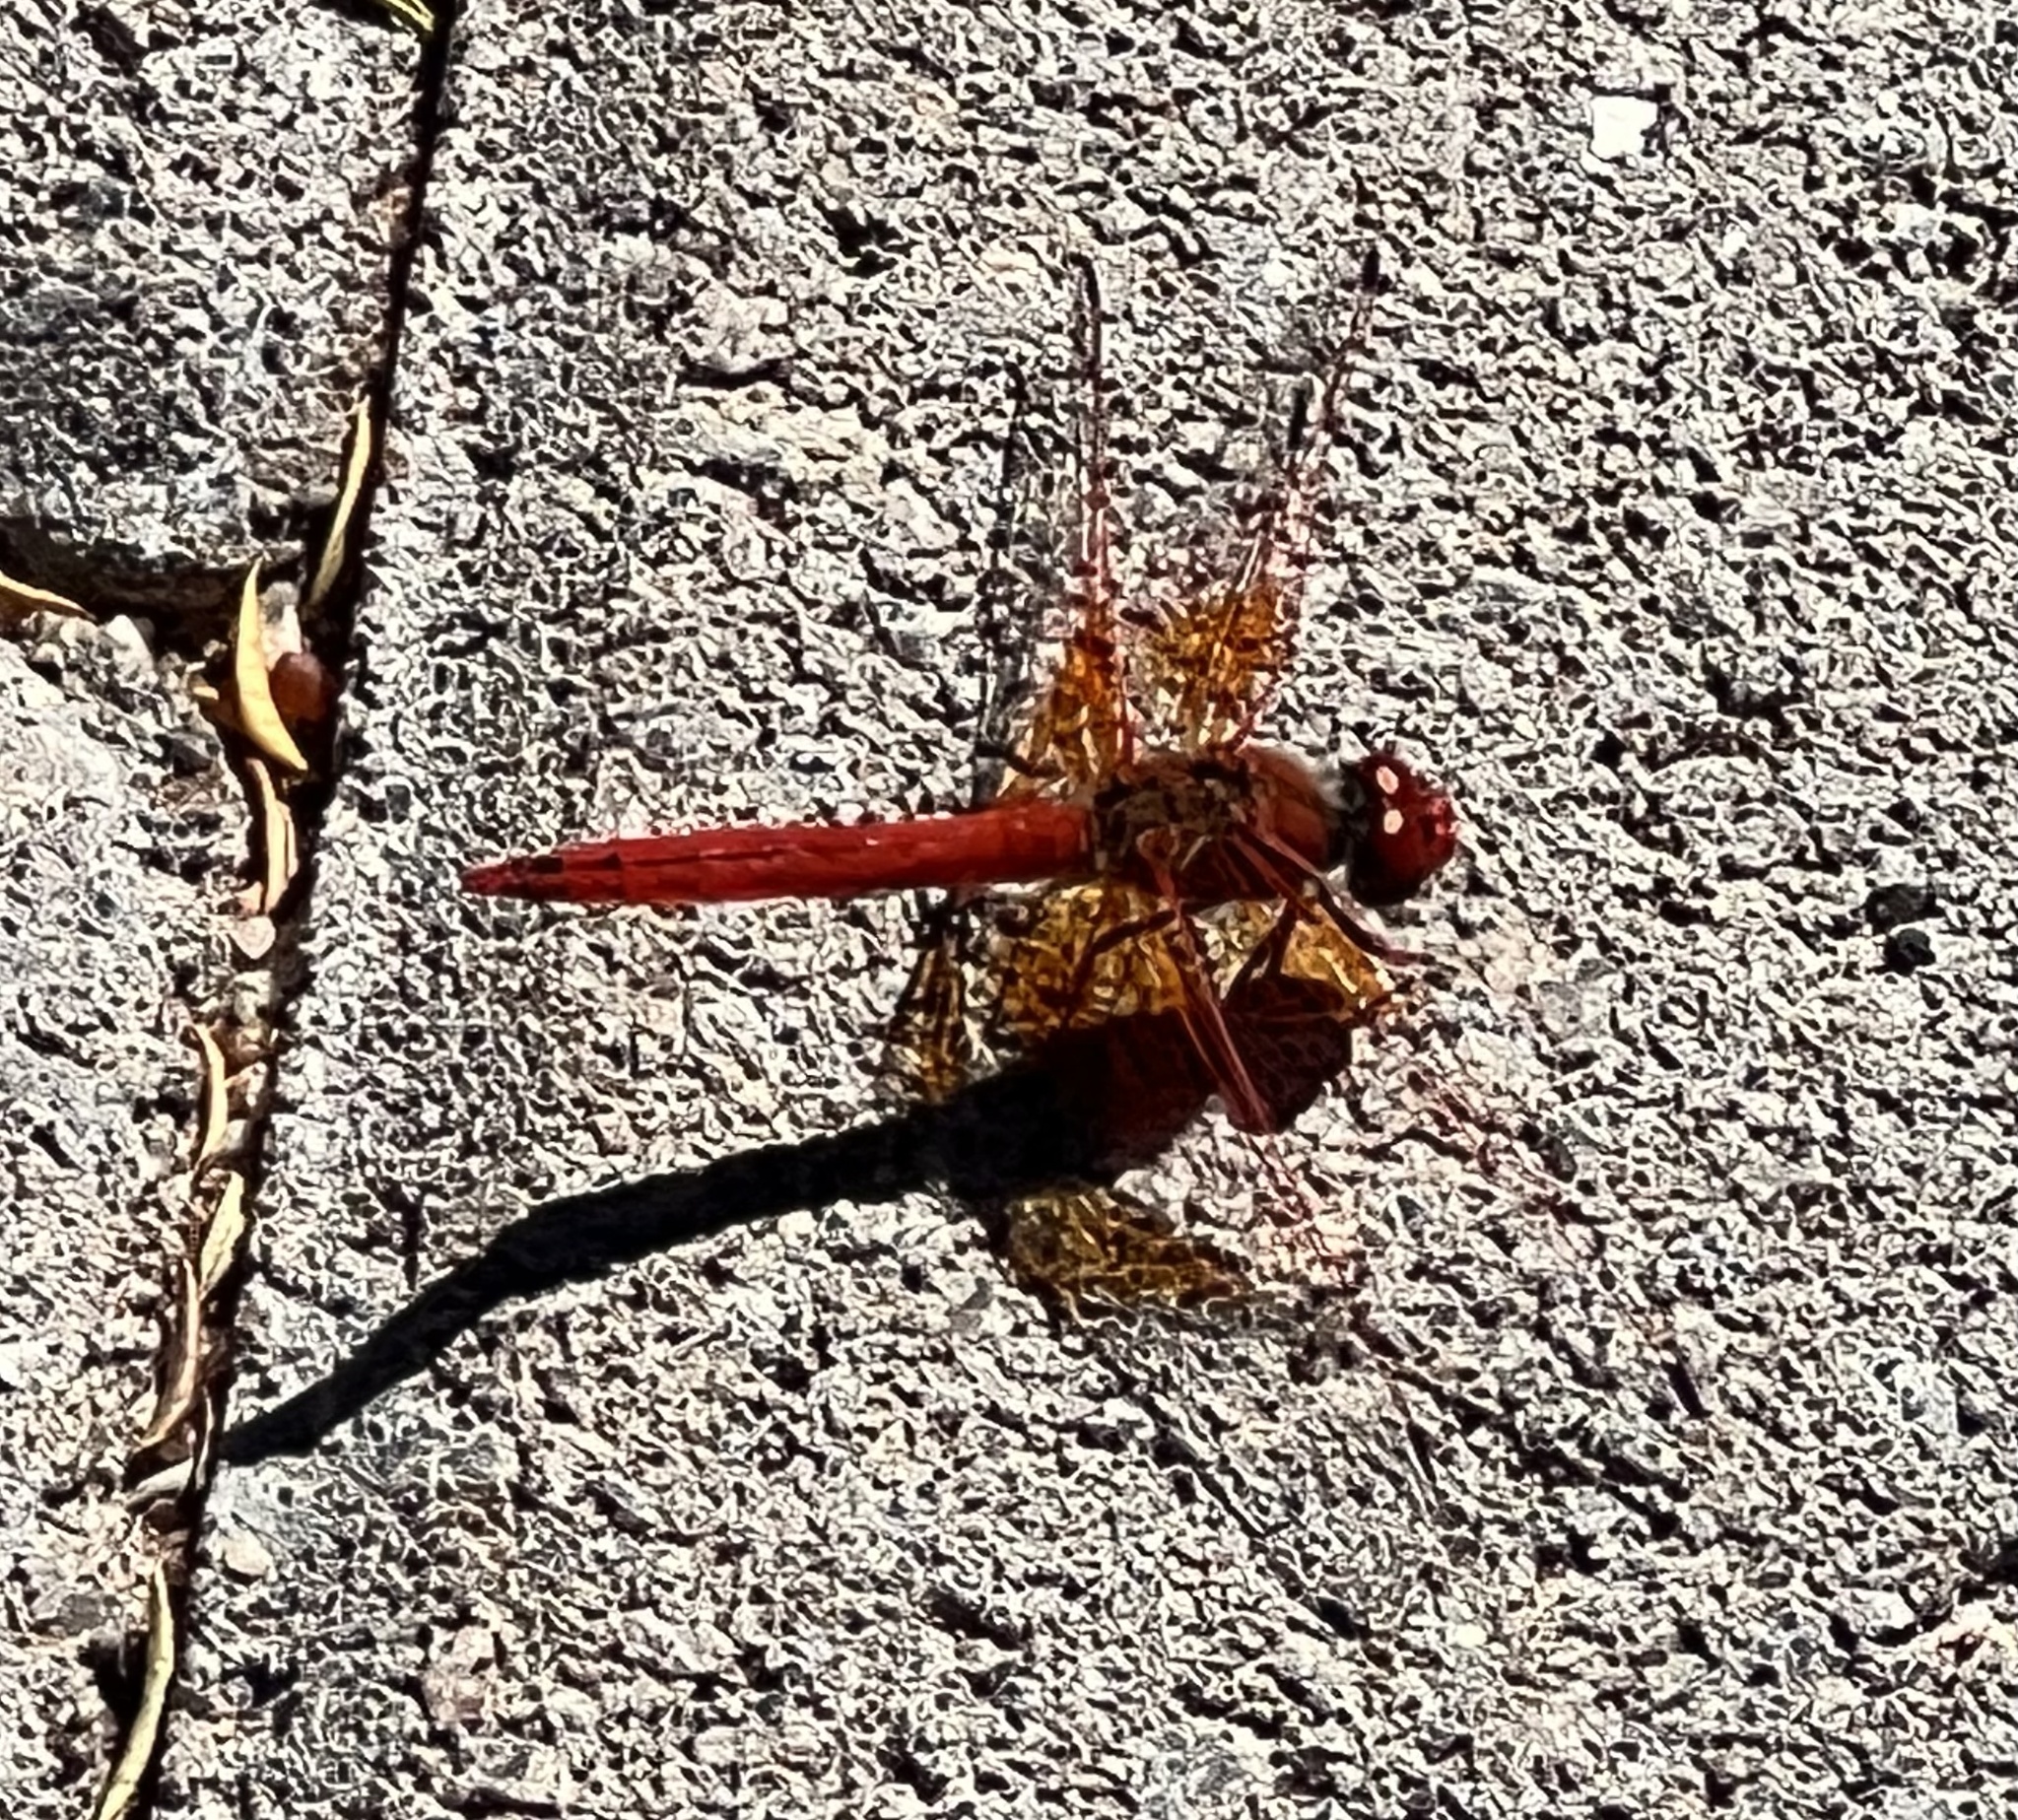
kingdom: Animalia
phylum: Arthropoda
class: Insecta
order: Odonata
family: Libellulidae
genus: Trithemis
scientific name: Trithemis kirbyi
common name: Kirby's dropwing
